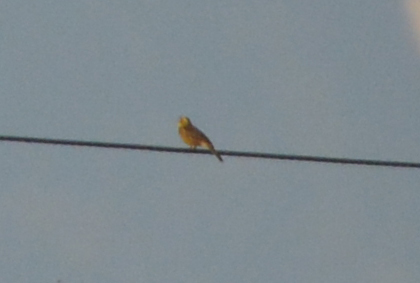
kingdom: Animalia
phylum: Chordata
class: Aves
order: Passeriformes
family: Emberizidae
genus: Emberiza
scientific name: Emberiza citrinella
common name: Yellowhammer
